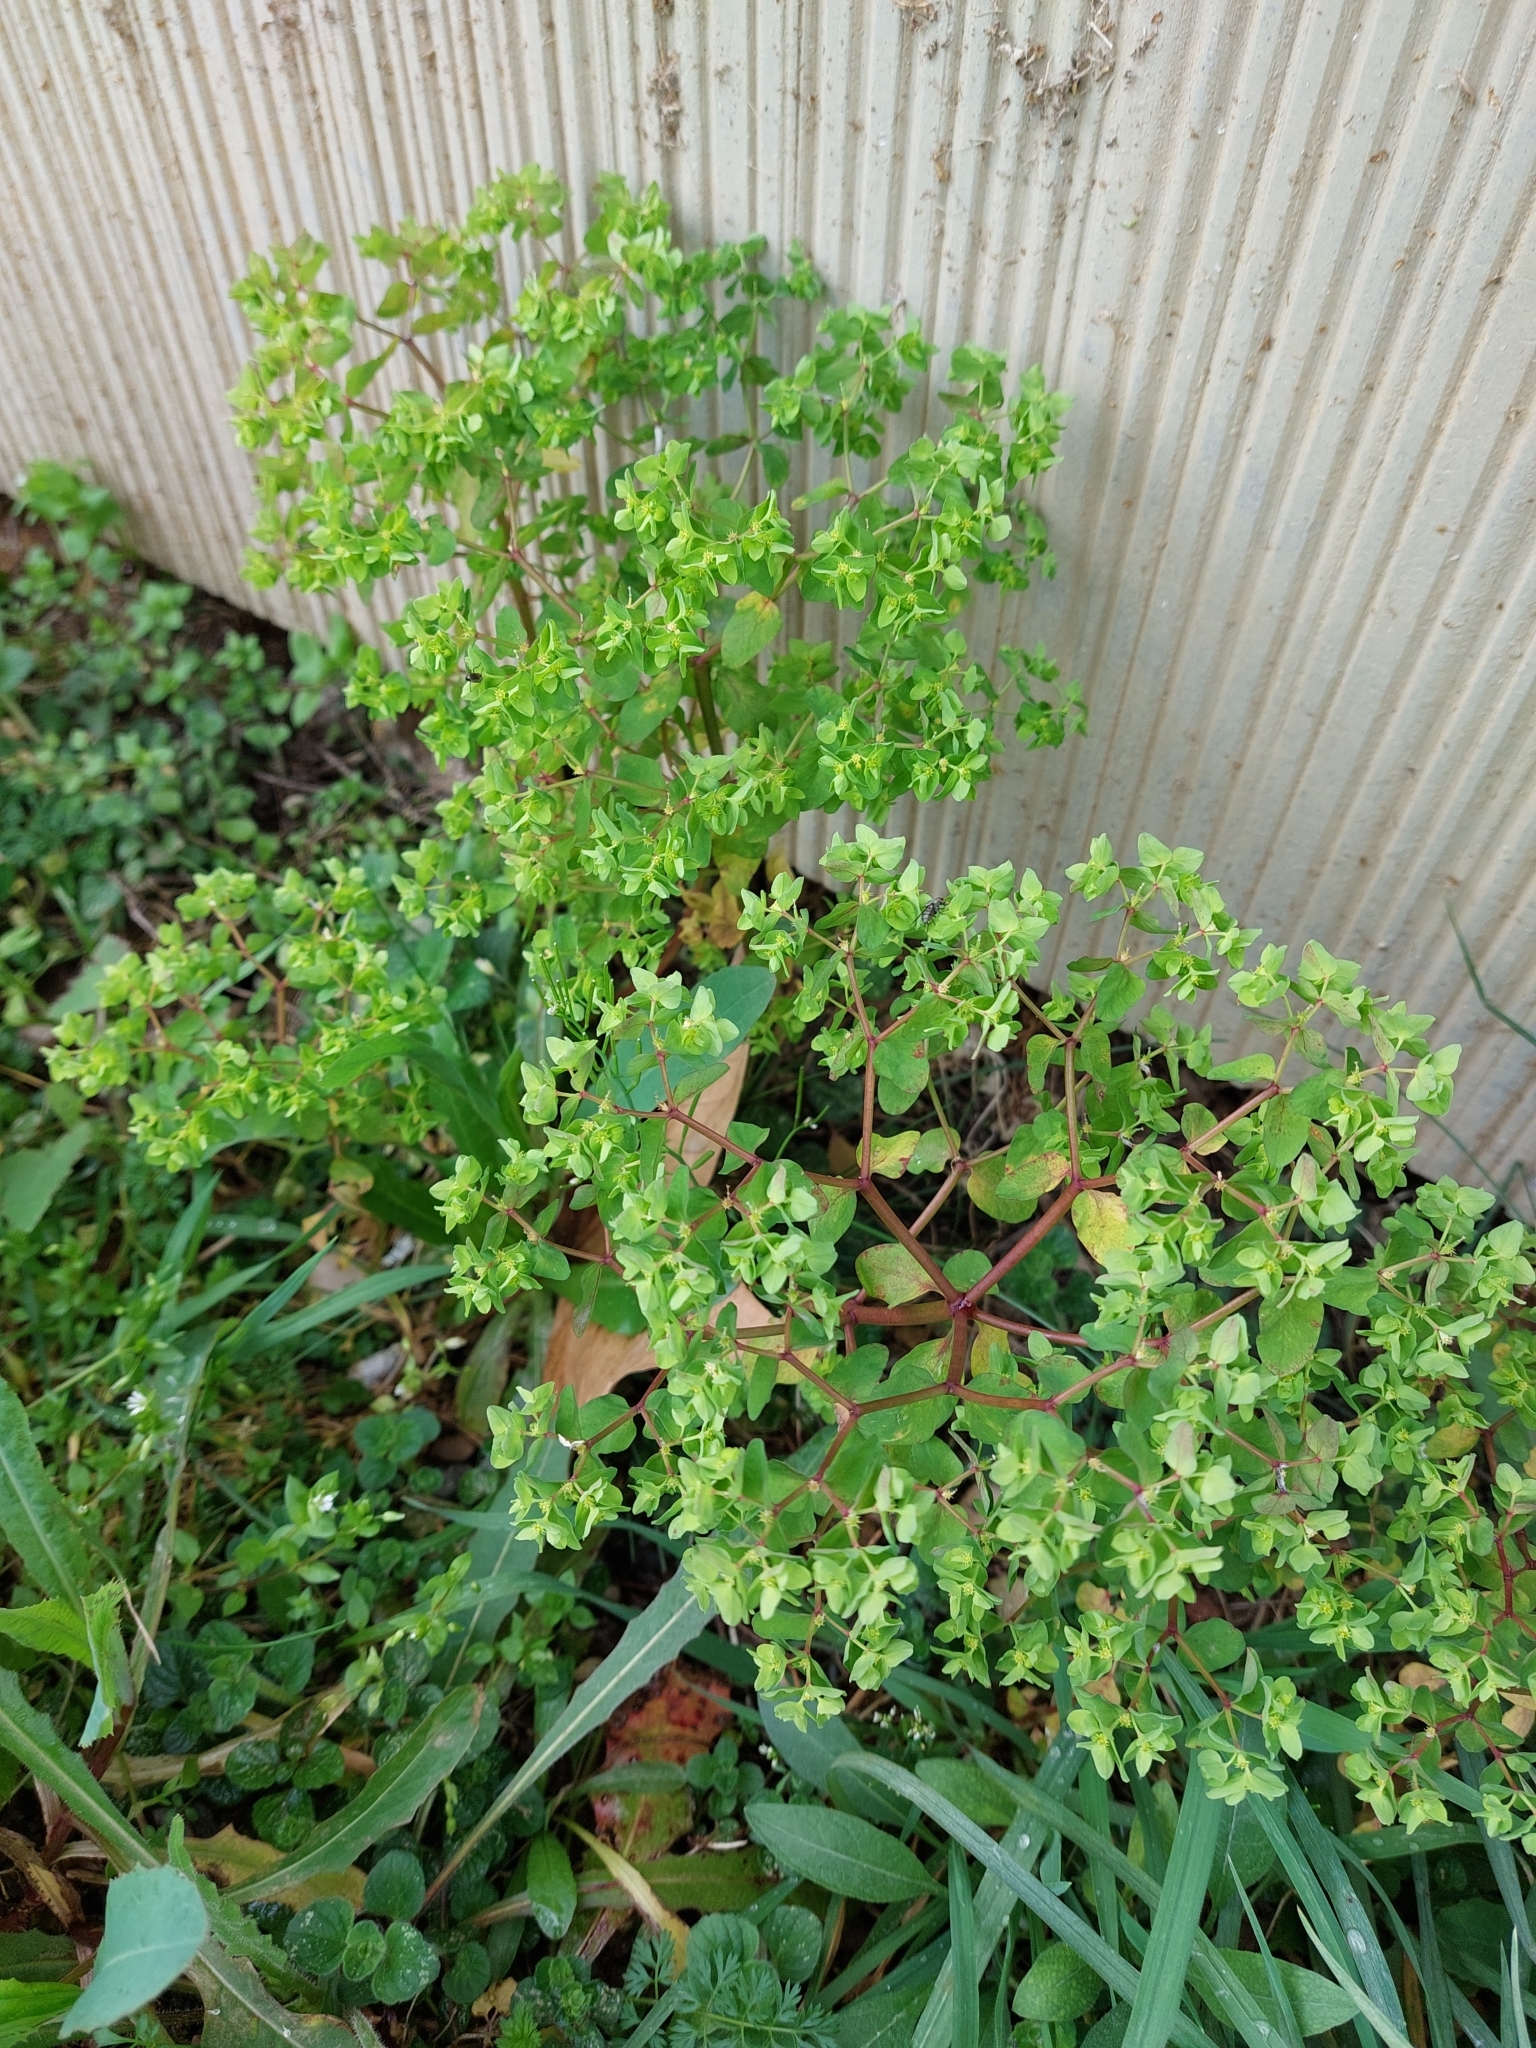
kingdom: Plantae
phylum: Tracheophyta
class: Magnoliopsida
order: Malpighiales
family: Euphorbiaceae
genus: Euphorbia
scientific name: Euphorbia peplus
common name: Petty spurge
